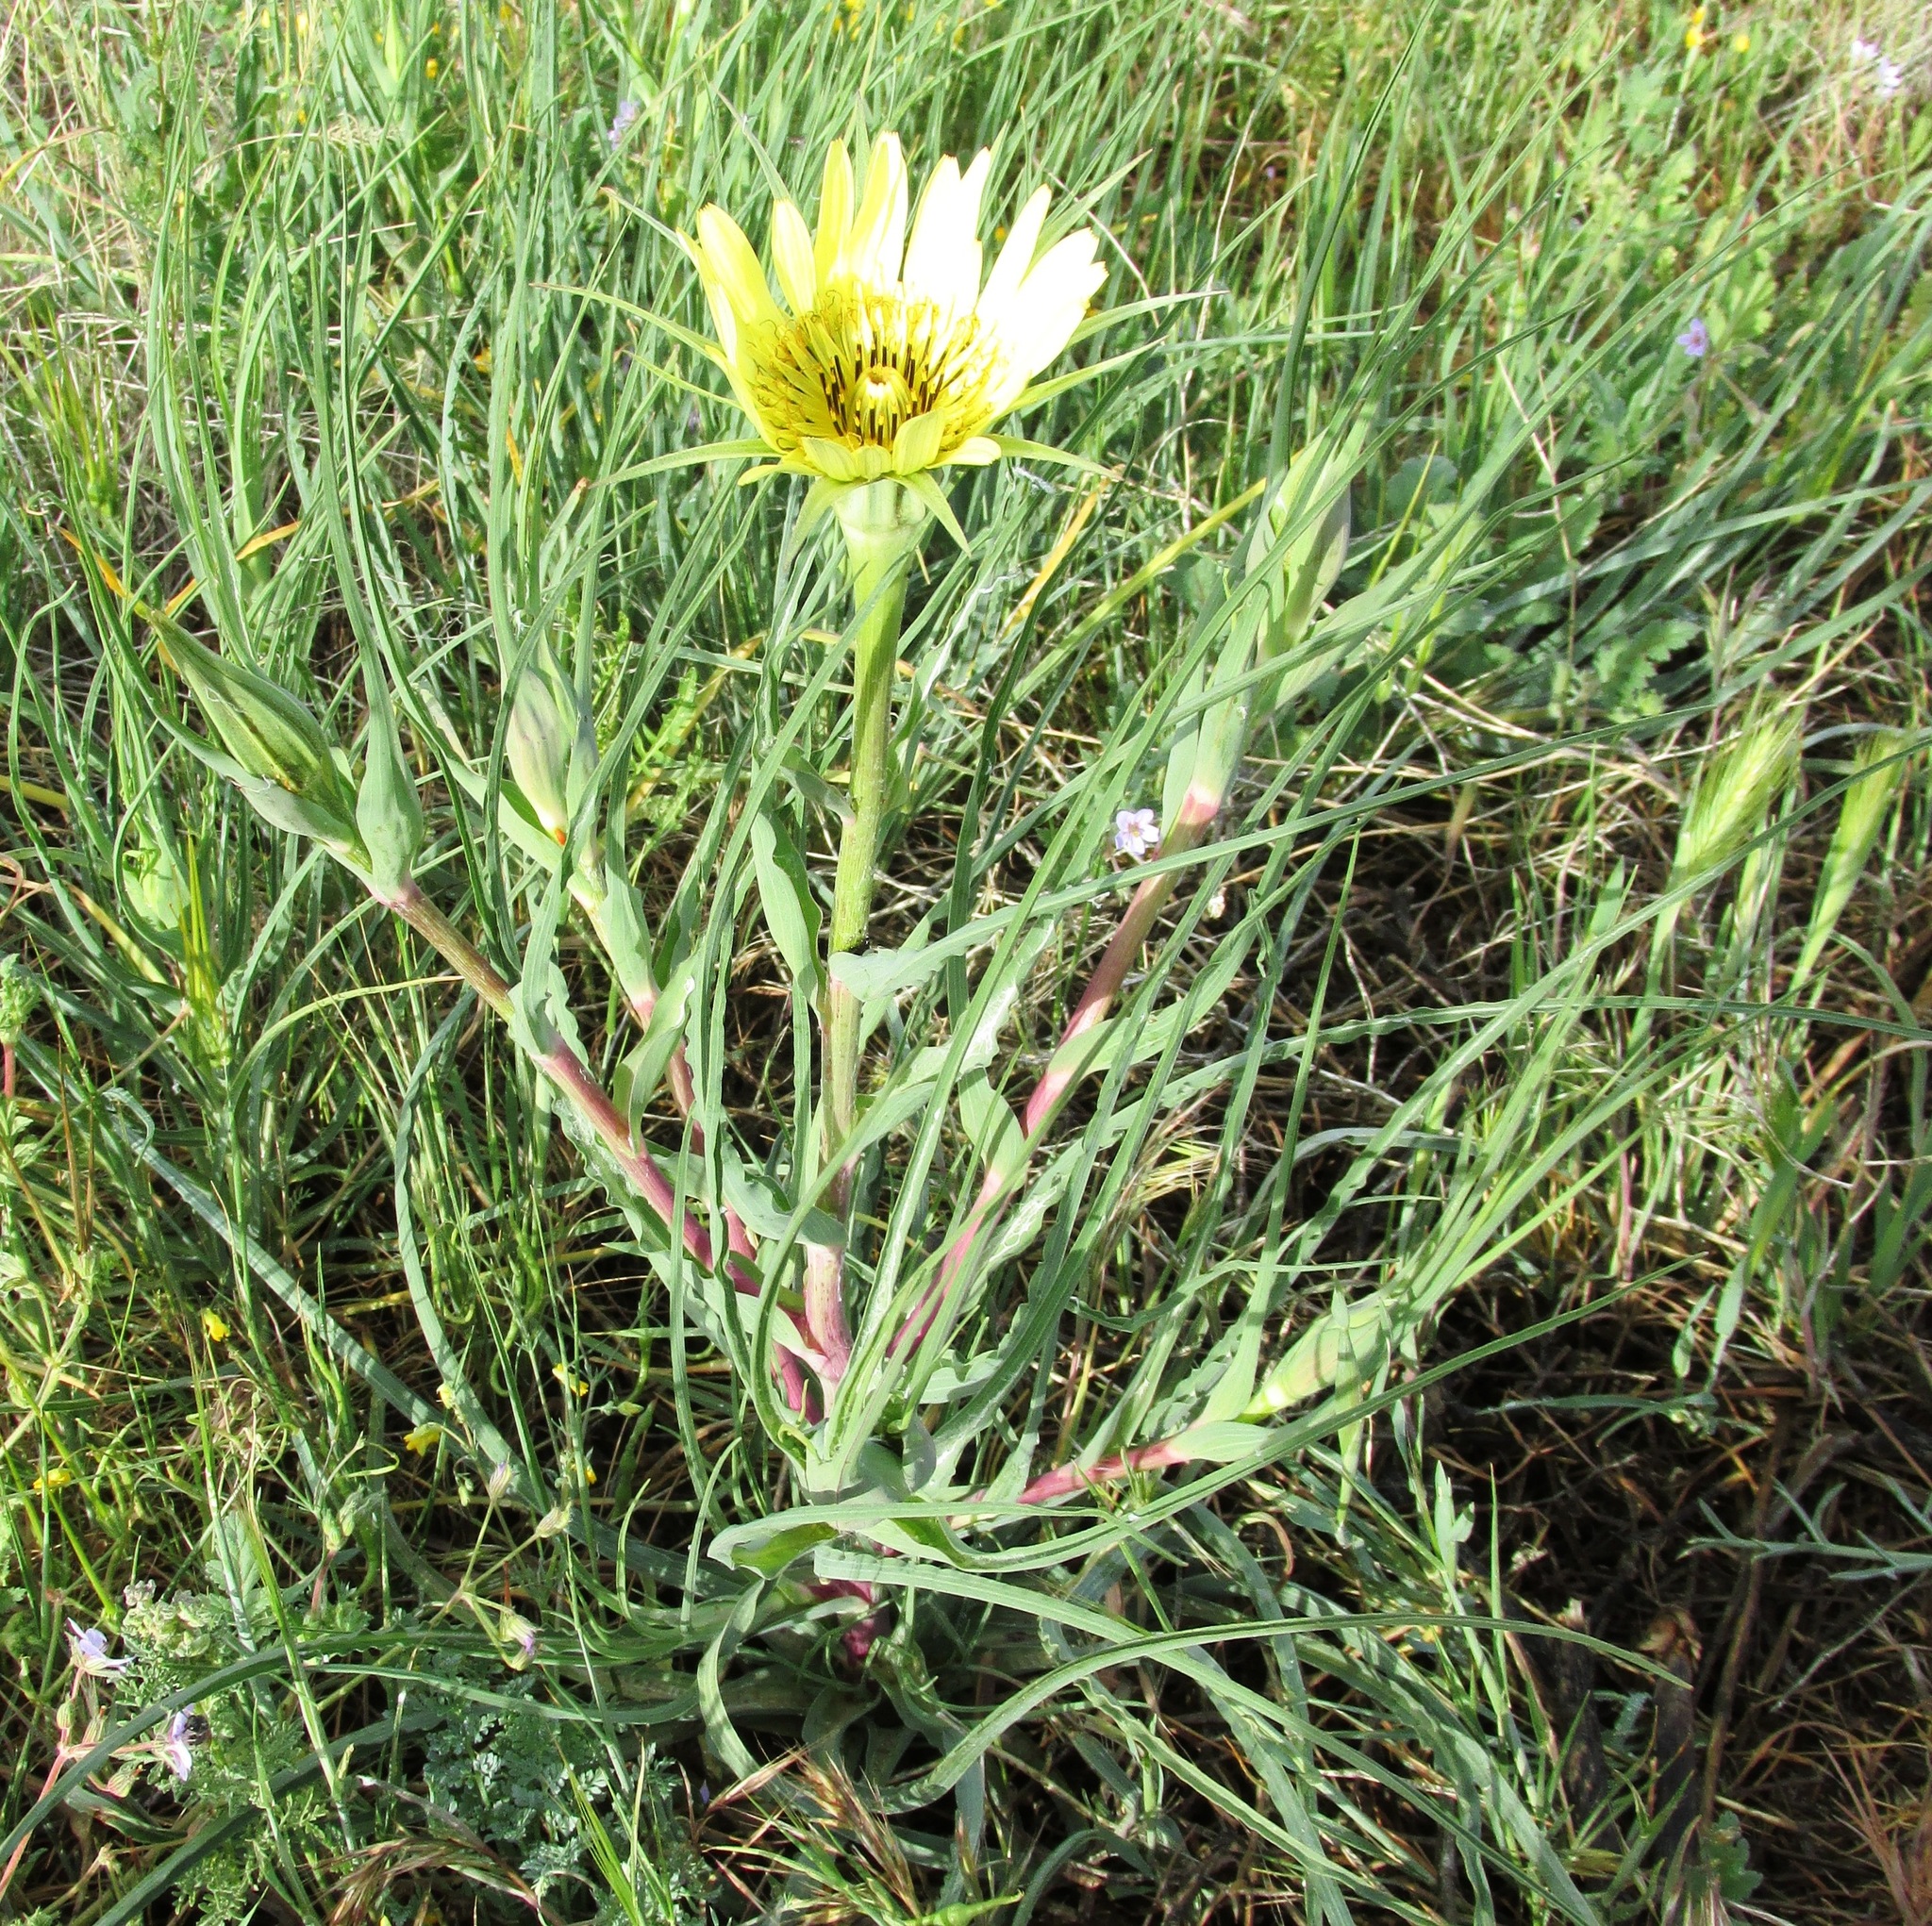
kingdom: Plantae
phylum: Tracheophyta
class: Magnoliopsida
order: Asterales
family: Asteraceae
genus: Tragopogon
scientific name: Tragopogon dubius
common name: Yellow salsify
